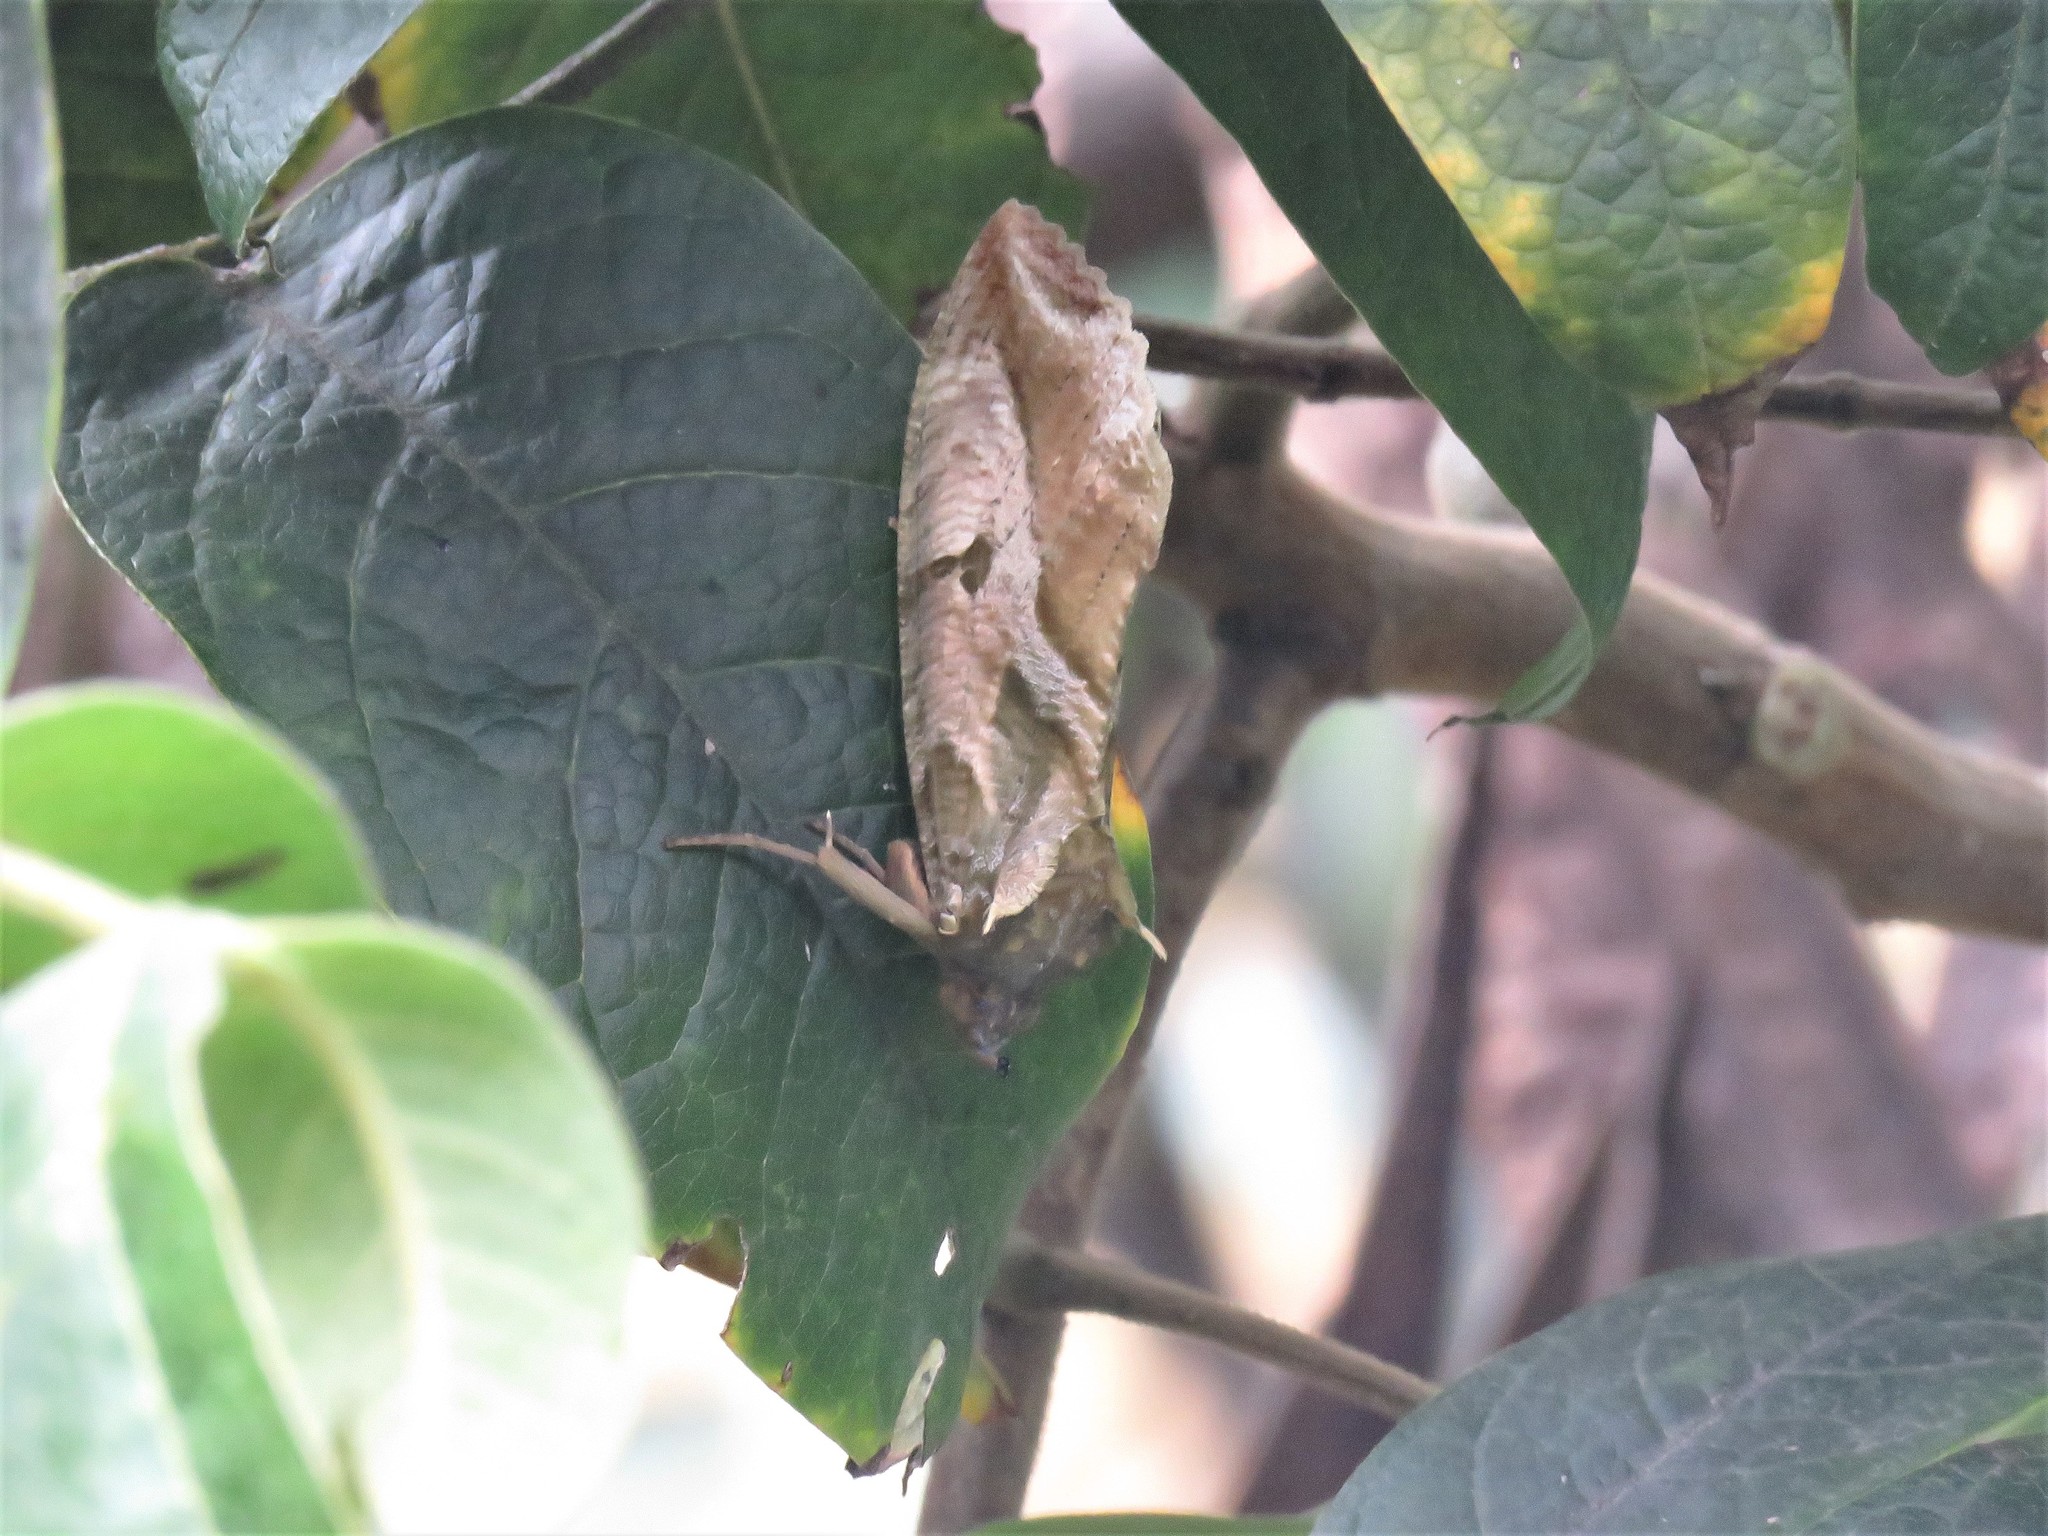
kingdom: Animalia
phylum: Arthropoda
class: Insecta
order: Lepidoptera
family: Erebidae
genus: Eudocima
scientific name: Eudocima apta
